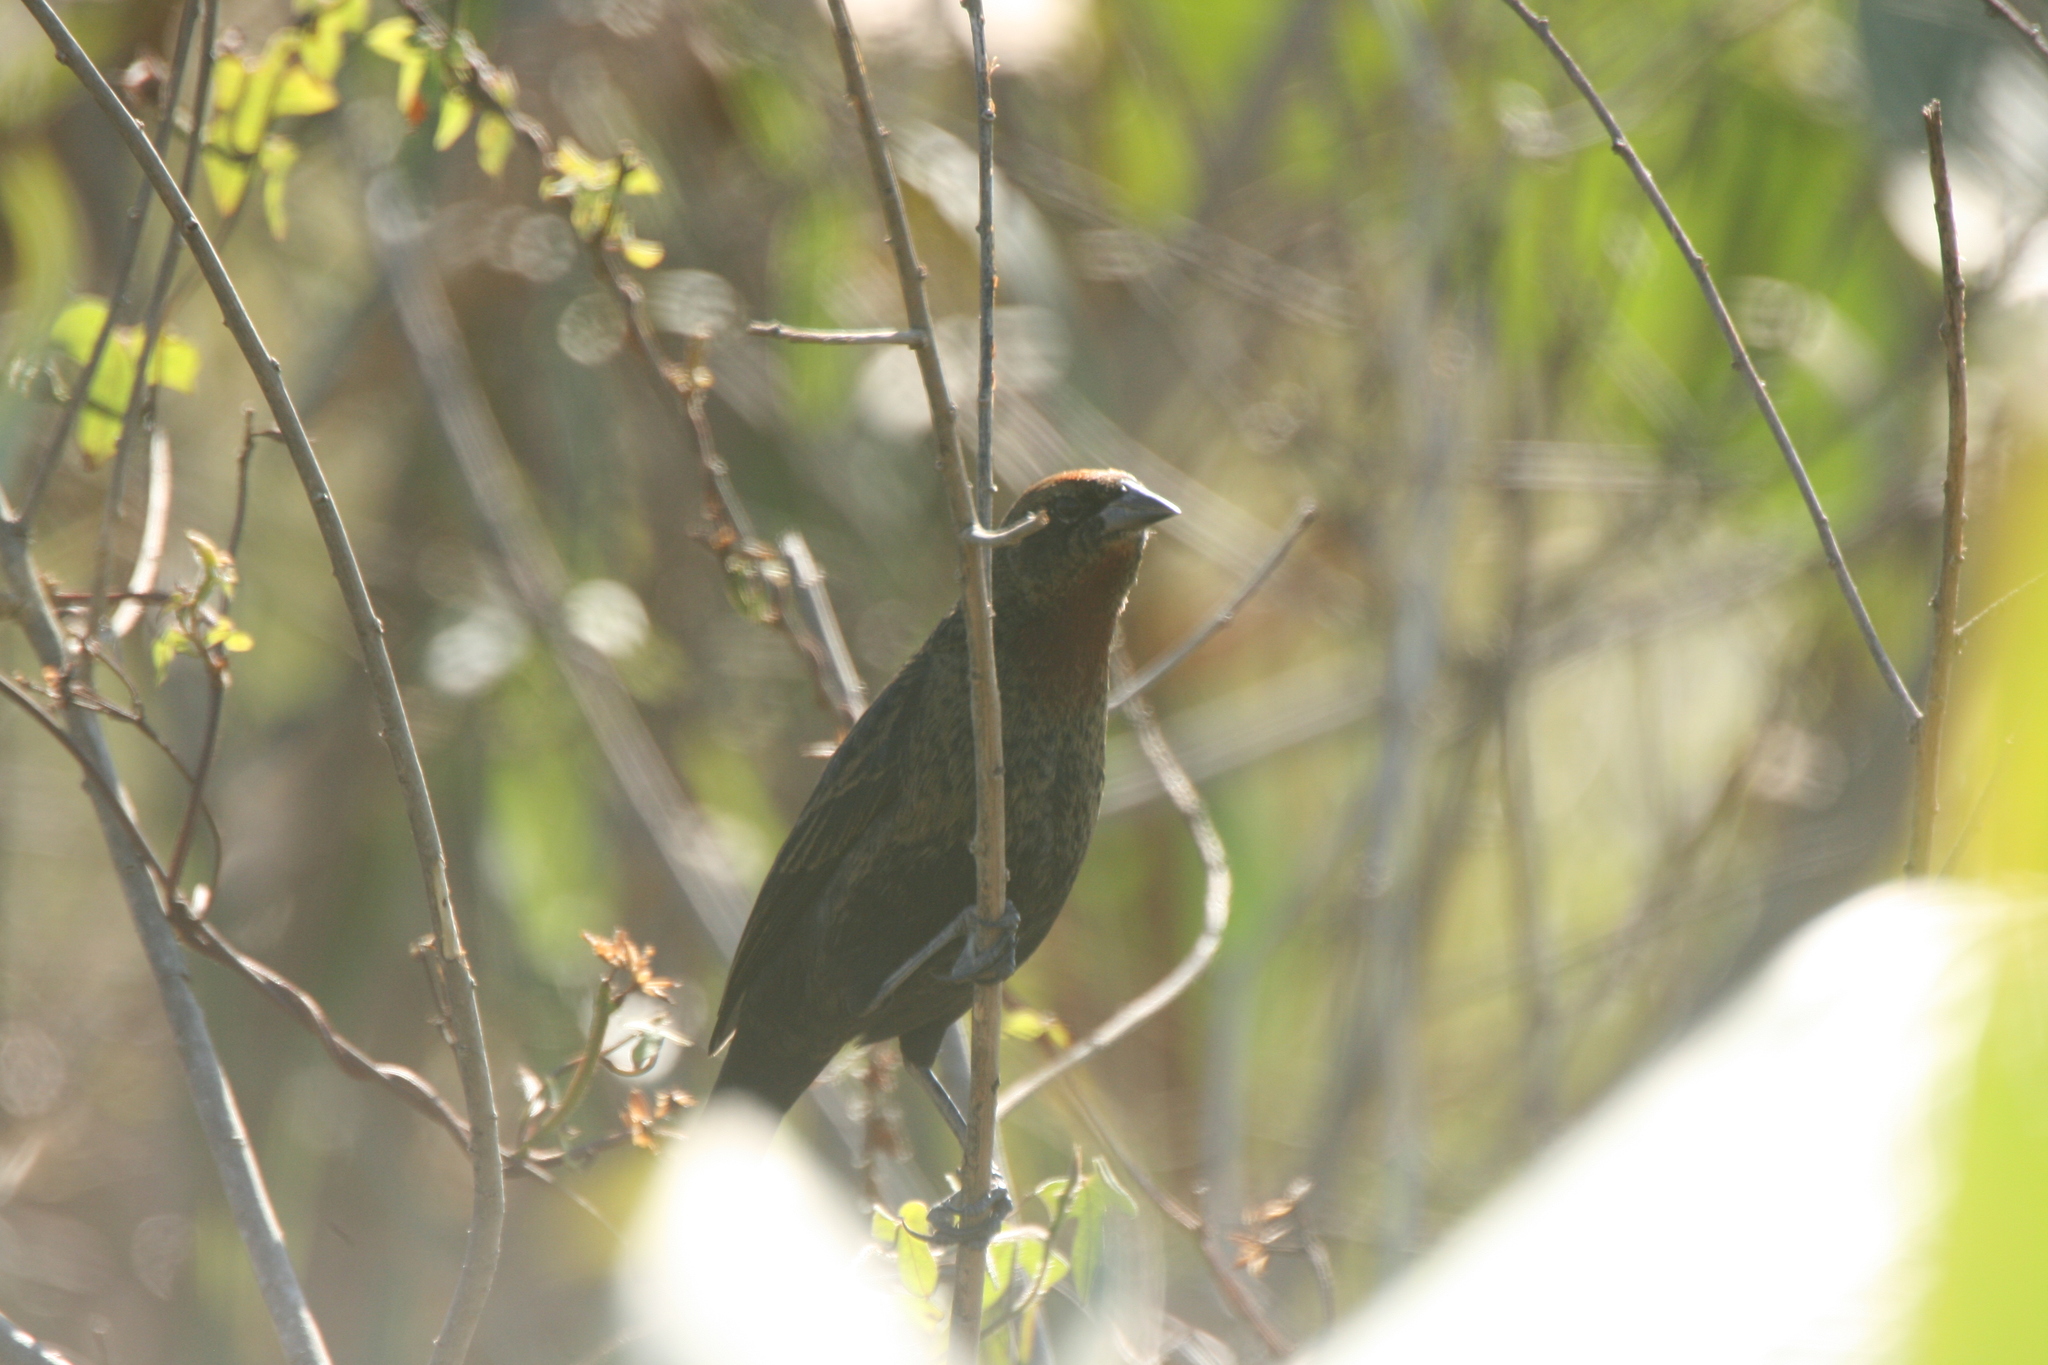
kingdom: Animalia
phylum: Chordata
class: Aves
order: Passeriformes
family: Icteridae
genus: Chrysomus
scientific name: Chrysomus ruficapillus
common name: Chestnut-capped blackbird
